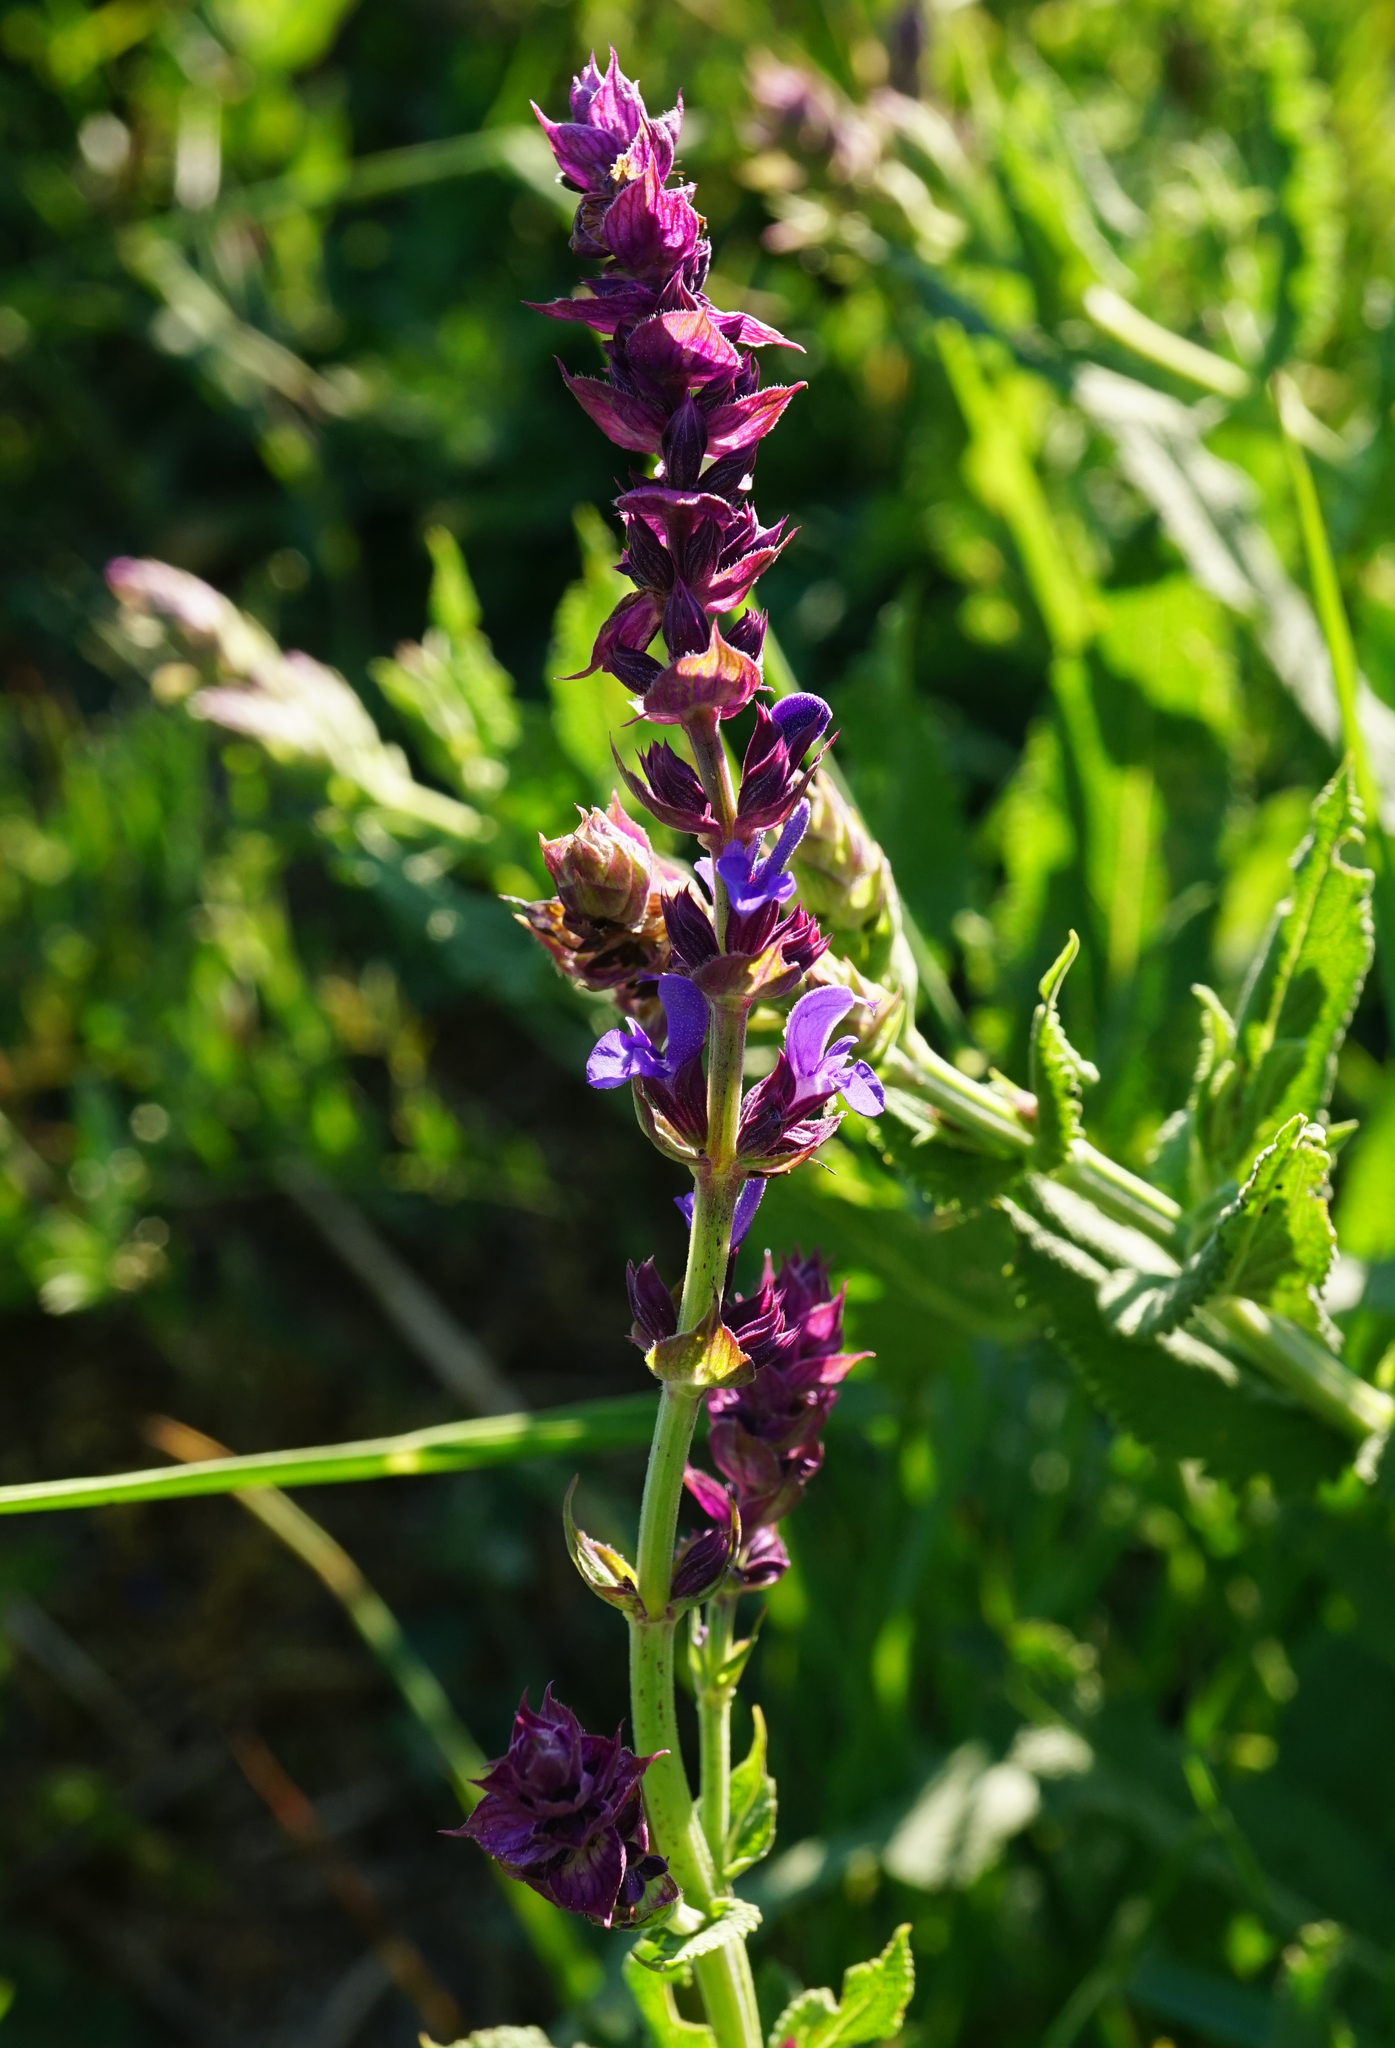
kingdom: Plantae
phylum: Tracheophyta
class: Magnoliopsida
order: Lamiales
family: Lamiaceae
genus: Salvia
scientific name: Salvia nemorosa
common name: Balkan clary
